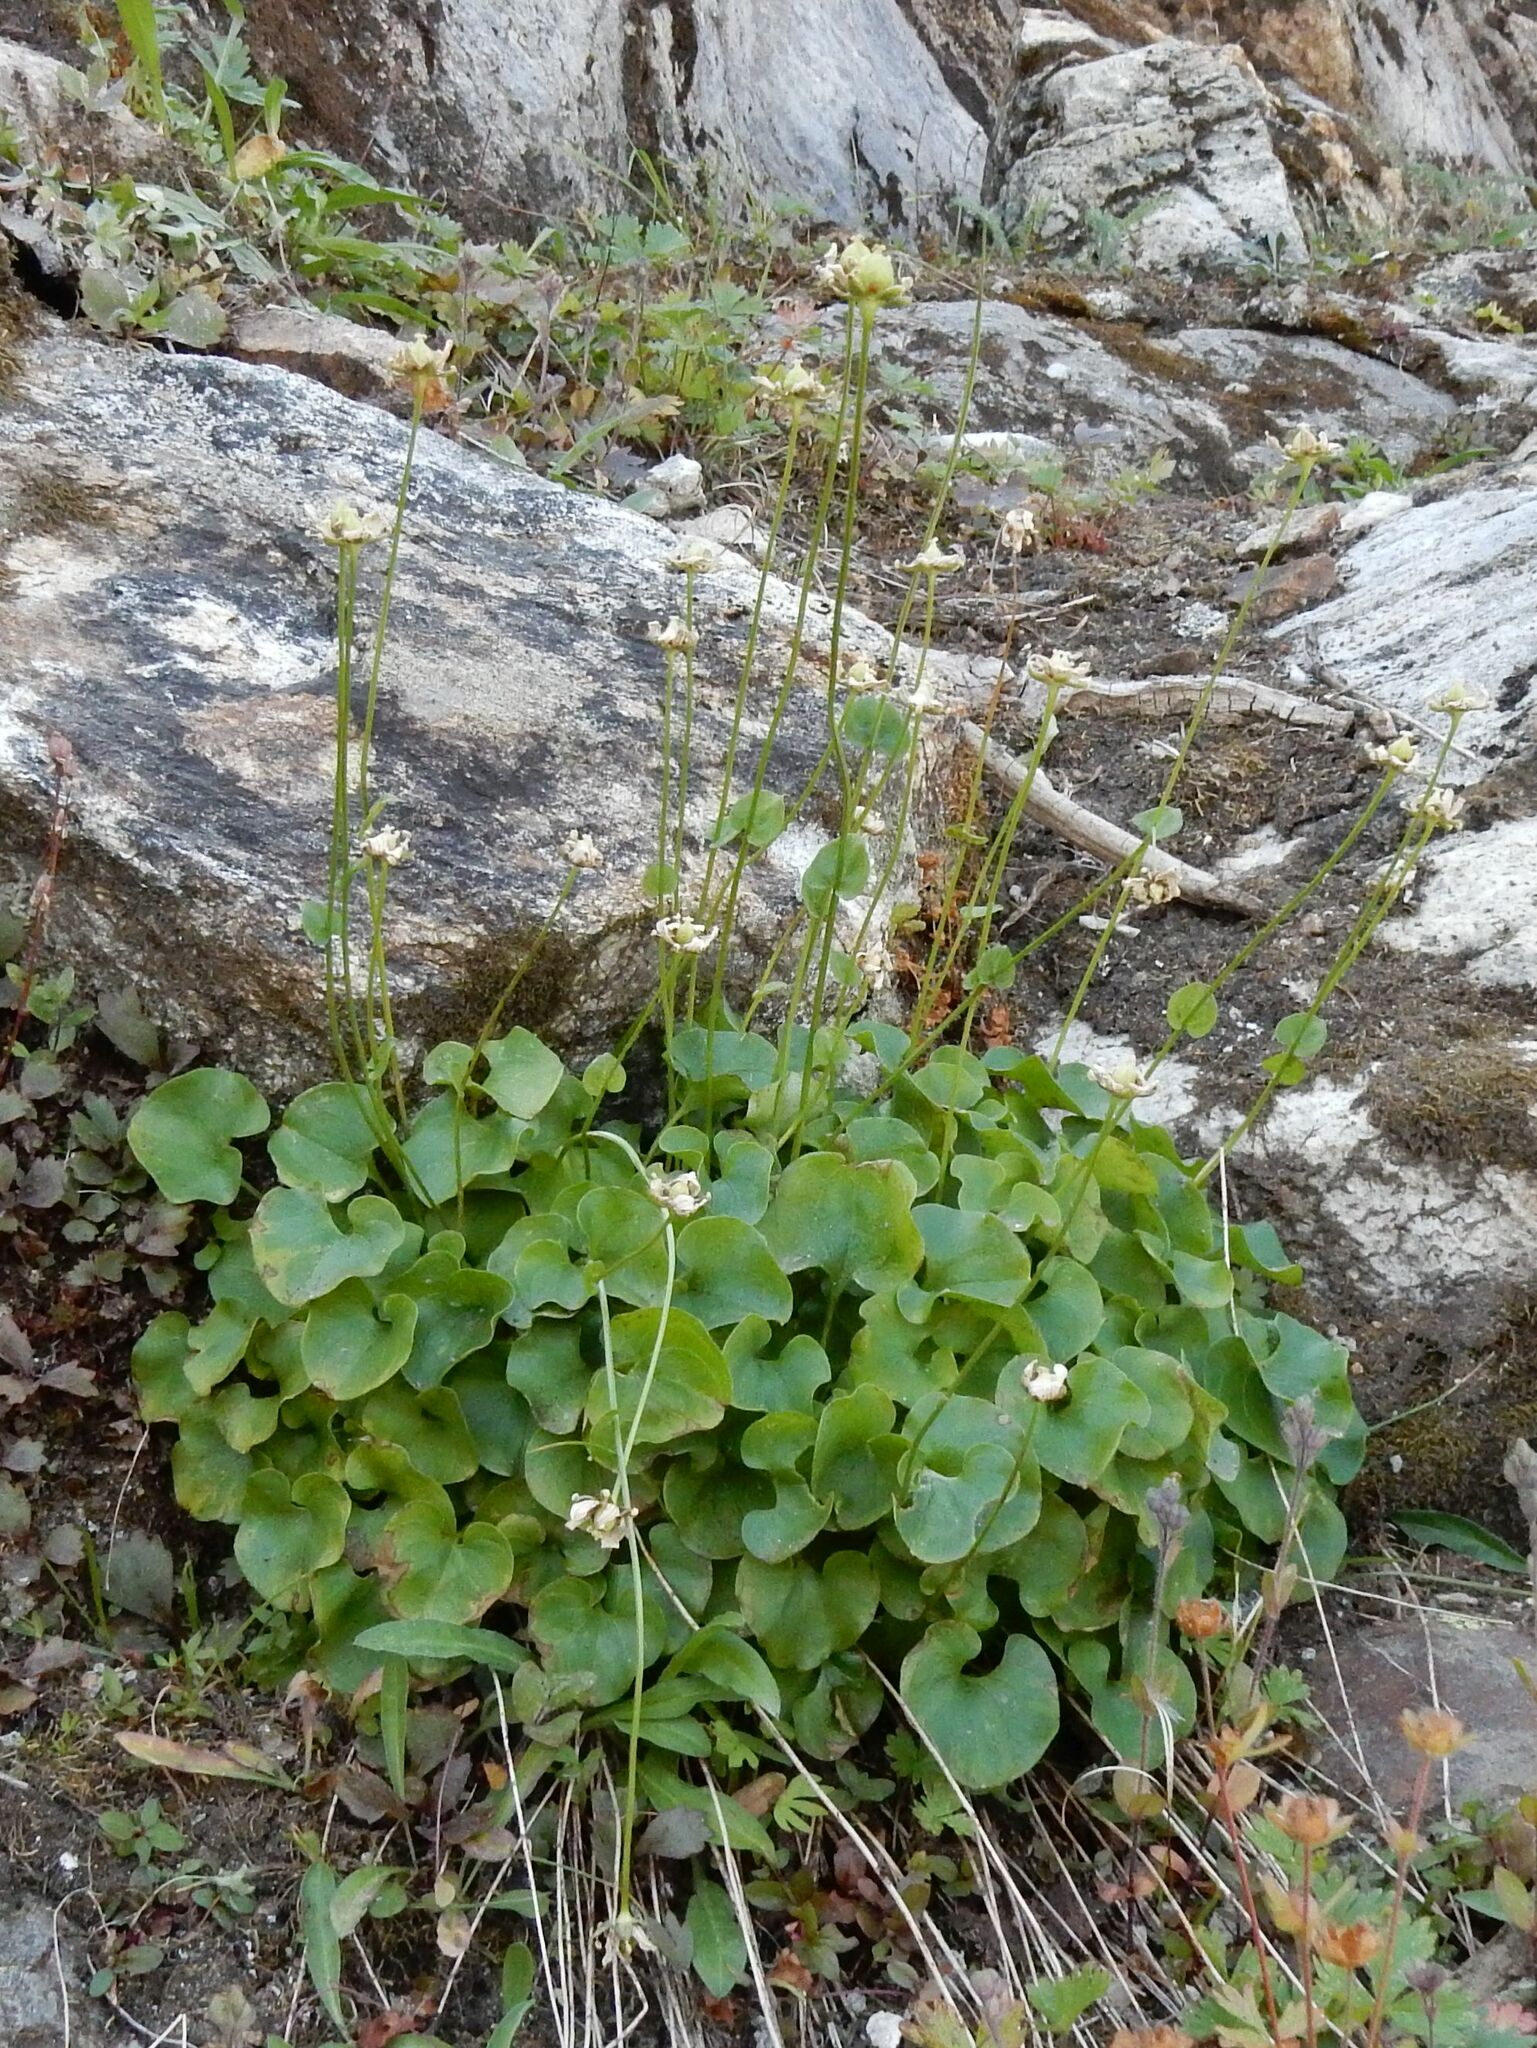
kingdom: Plantae
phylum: Tracheophyta
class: Magnoliopsida
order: Celastrales
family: Parnassiaceae
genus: Parnassia
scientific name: Parnassia fimbriata
